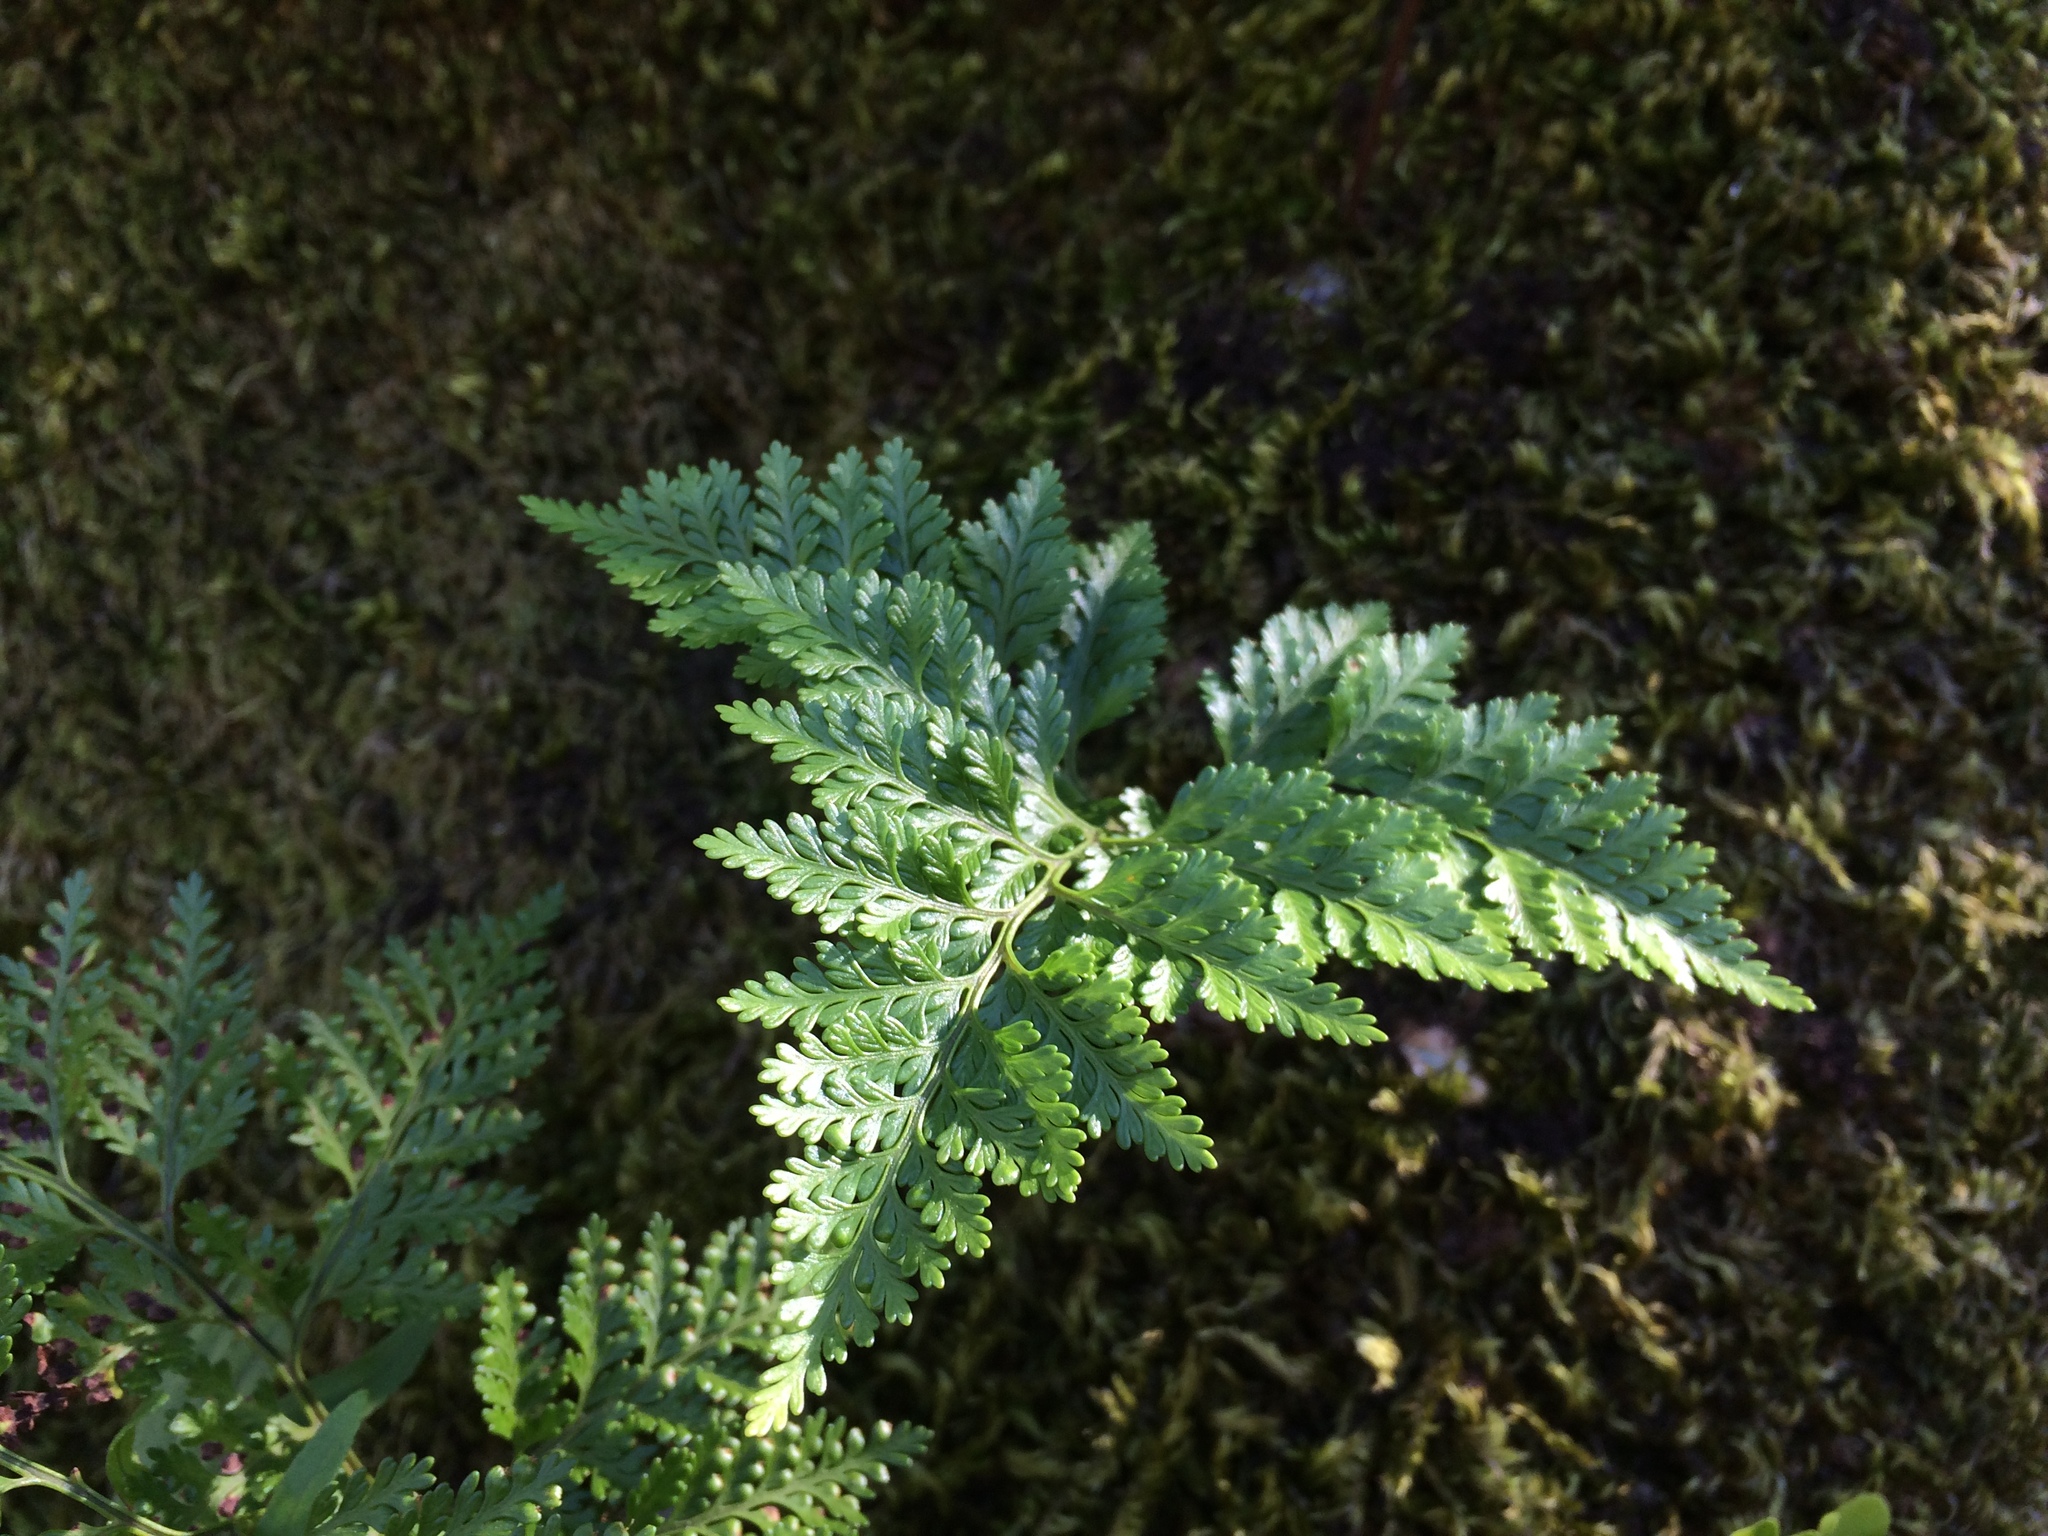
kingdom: Plantae
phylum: Tracheophyta
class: Polypodiopsida
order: Polypodiales
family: Davalliaceae
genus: Davallia
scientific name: Davallia canariensis
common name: Hare's-foot fern
